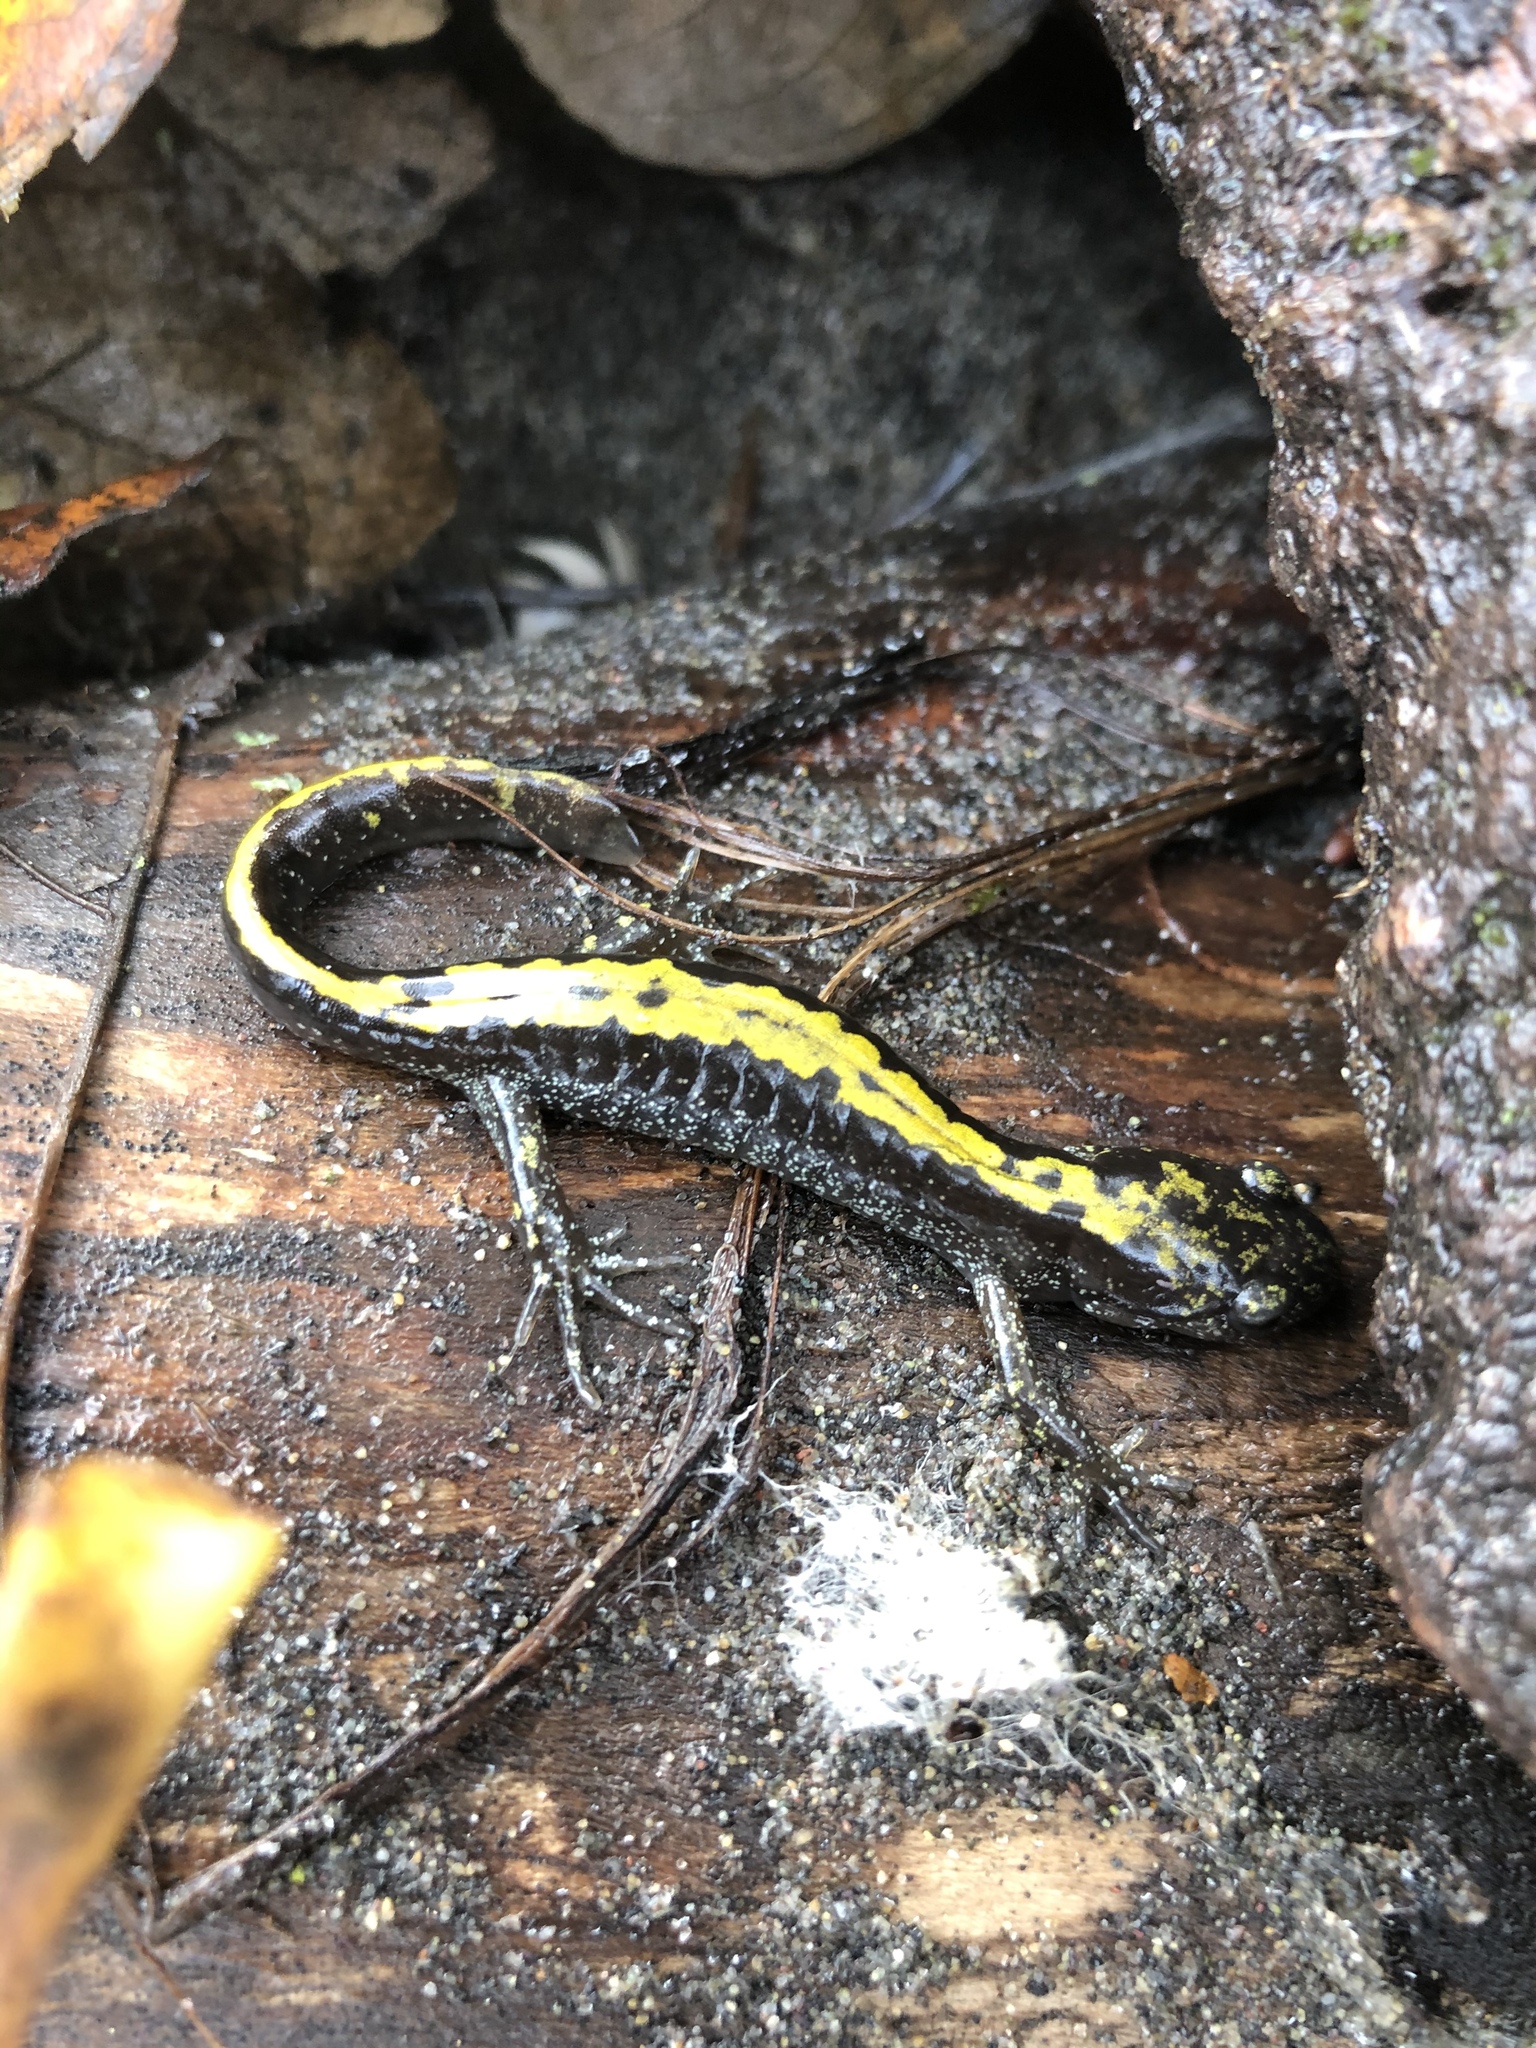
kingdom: Animalia
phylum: Chordata
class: Amphibia
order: Caudata
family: Ambystomatidae
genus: Ambystoma
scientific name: Ambystoma macrodactylum
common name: Long-toed salamander
